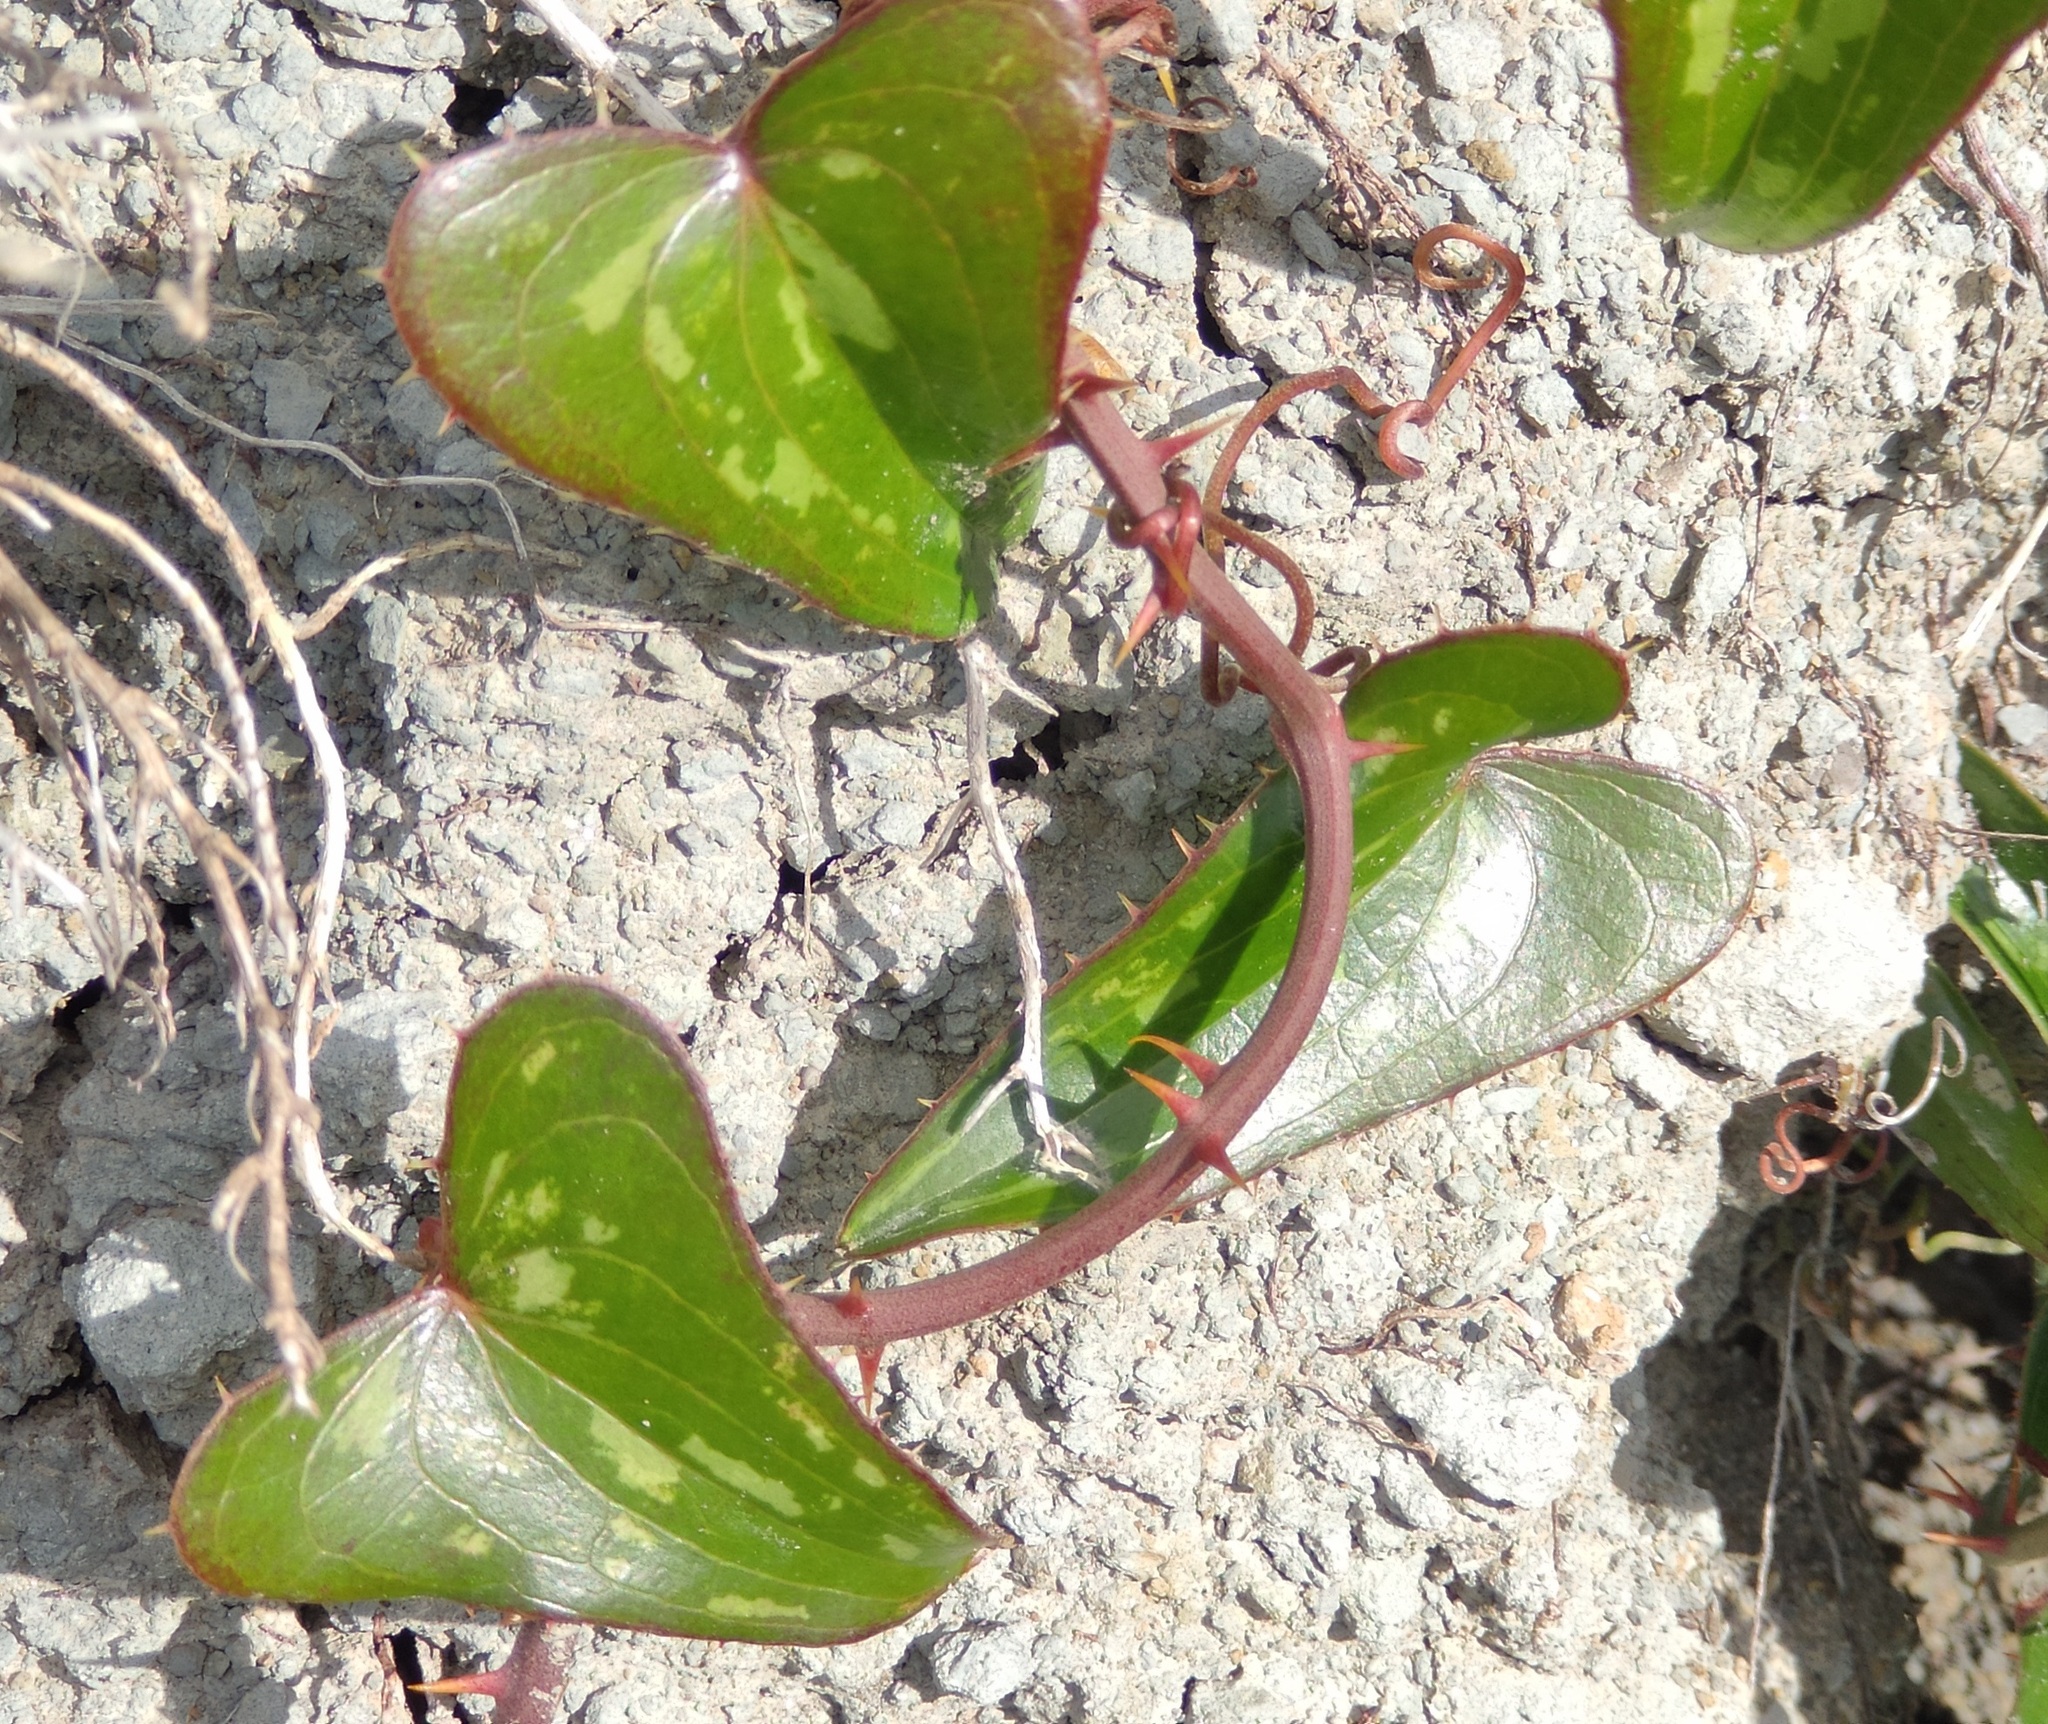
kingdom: Plantae
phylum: Tracheophyta
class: Liliopsida
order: Liliales
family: Smilacaceae
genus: Smilax
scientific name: Smilax aspera
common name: Common smilax
